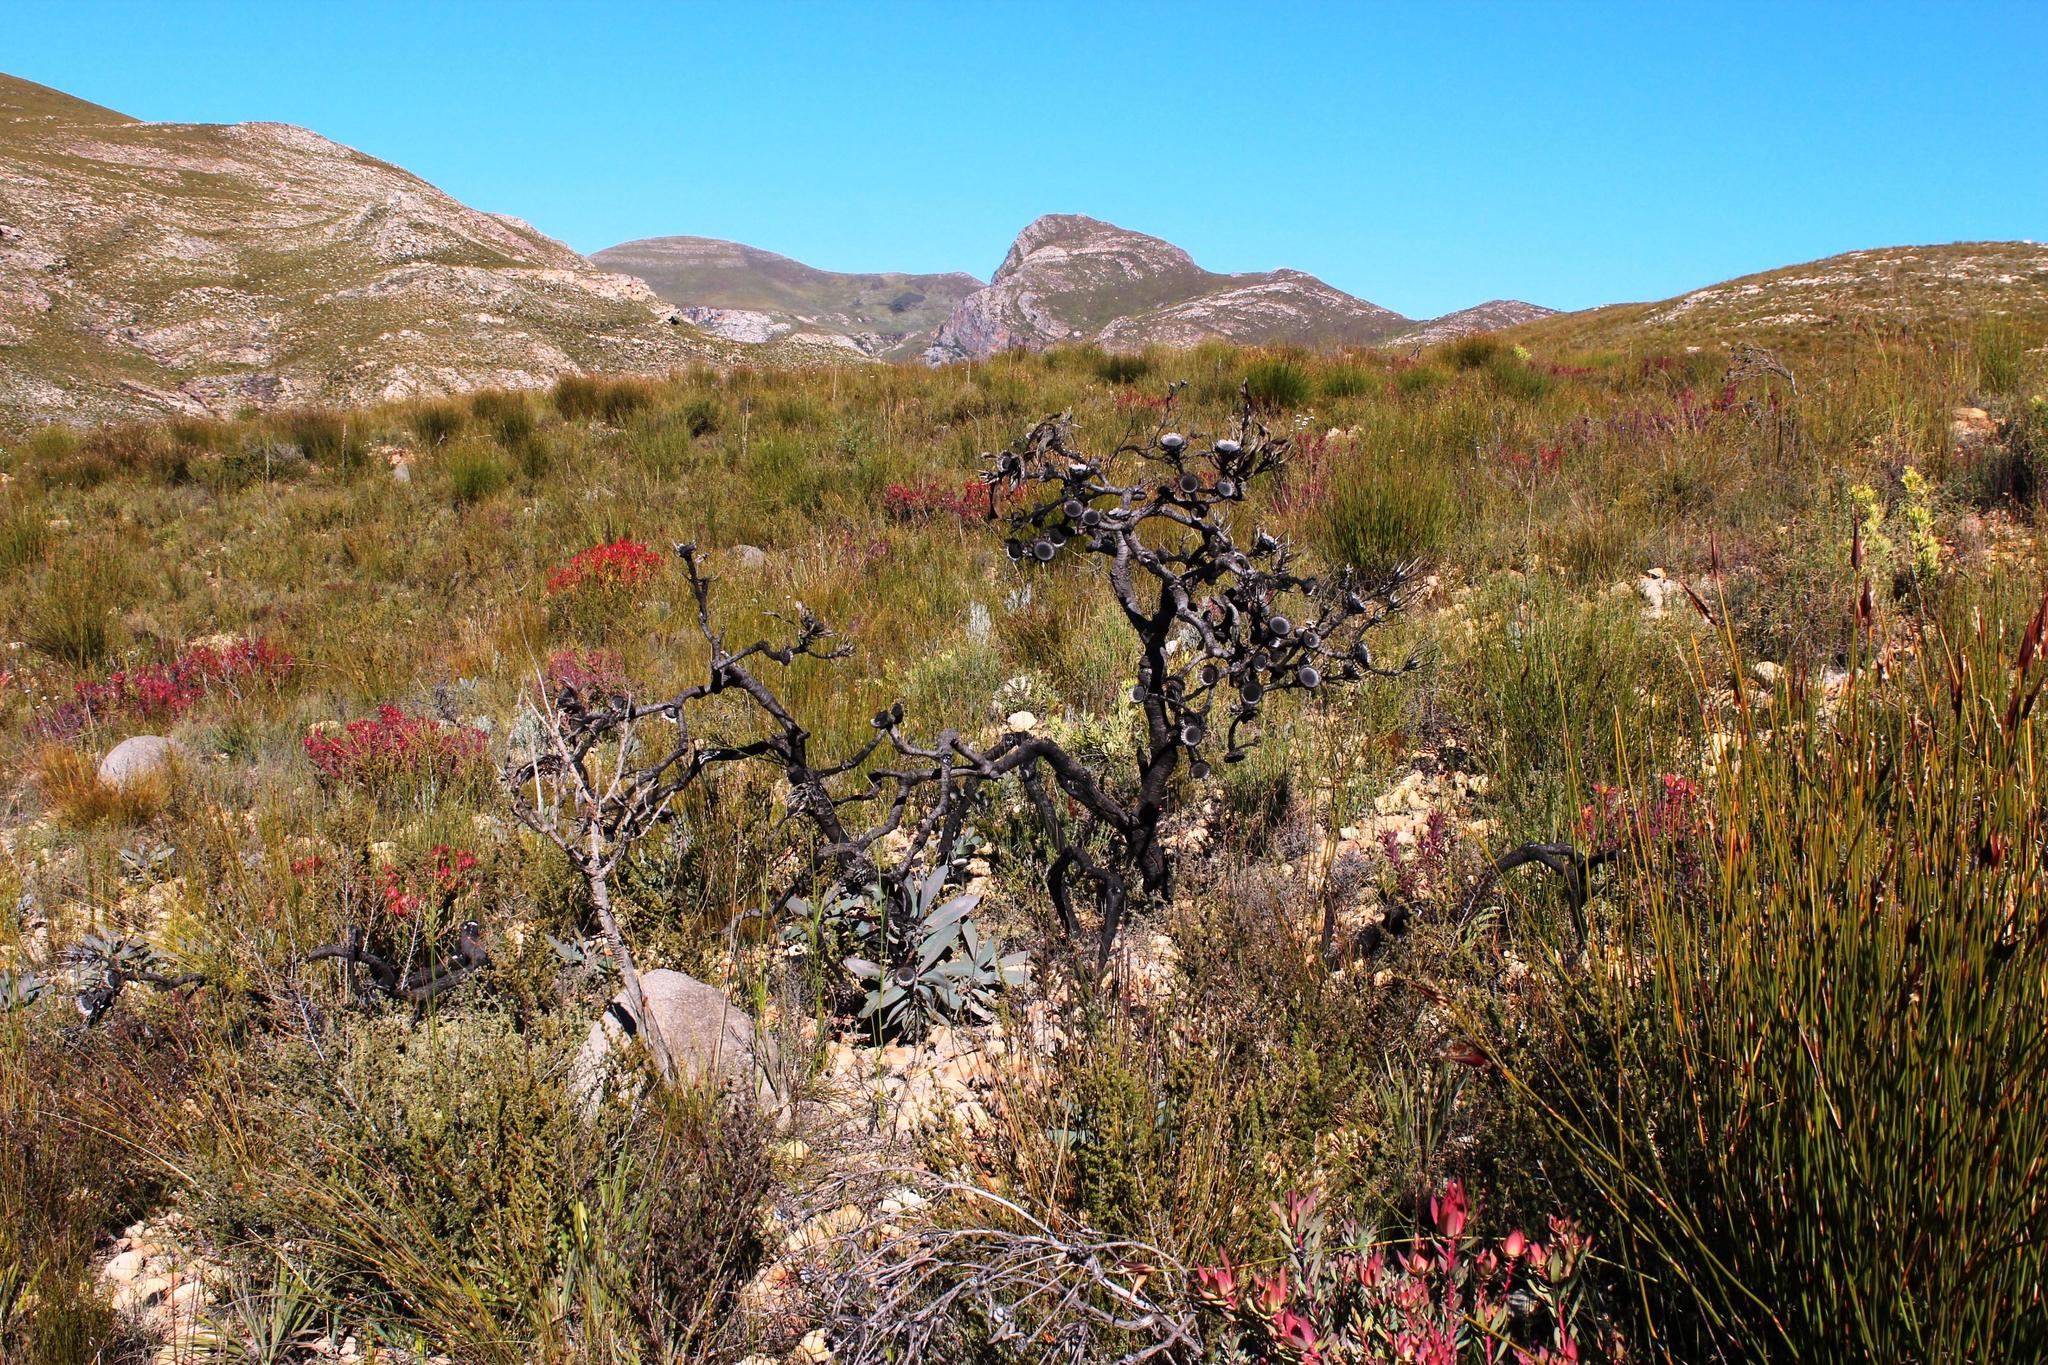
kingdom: Plantae
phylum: Tracheophyta
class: Magnoliopsida
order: Proteales
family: Proteaceae
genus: Protea
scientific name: Protea lorifolia
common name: Strap-leaved protea
